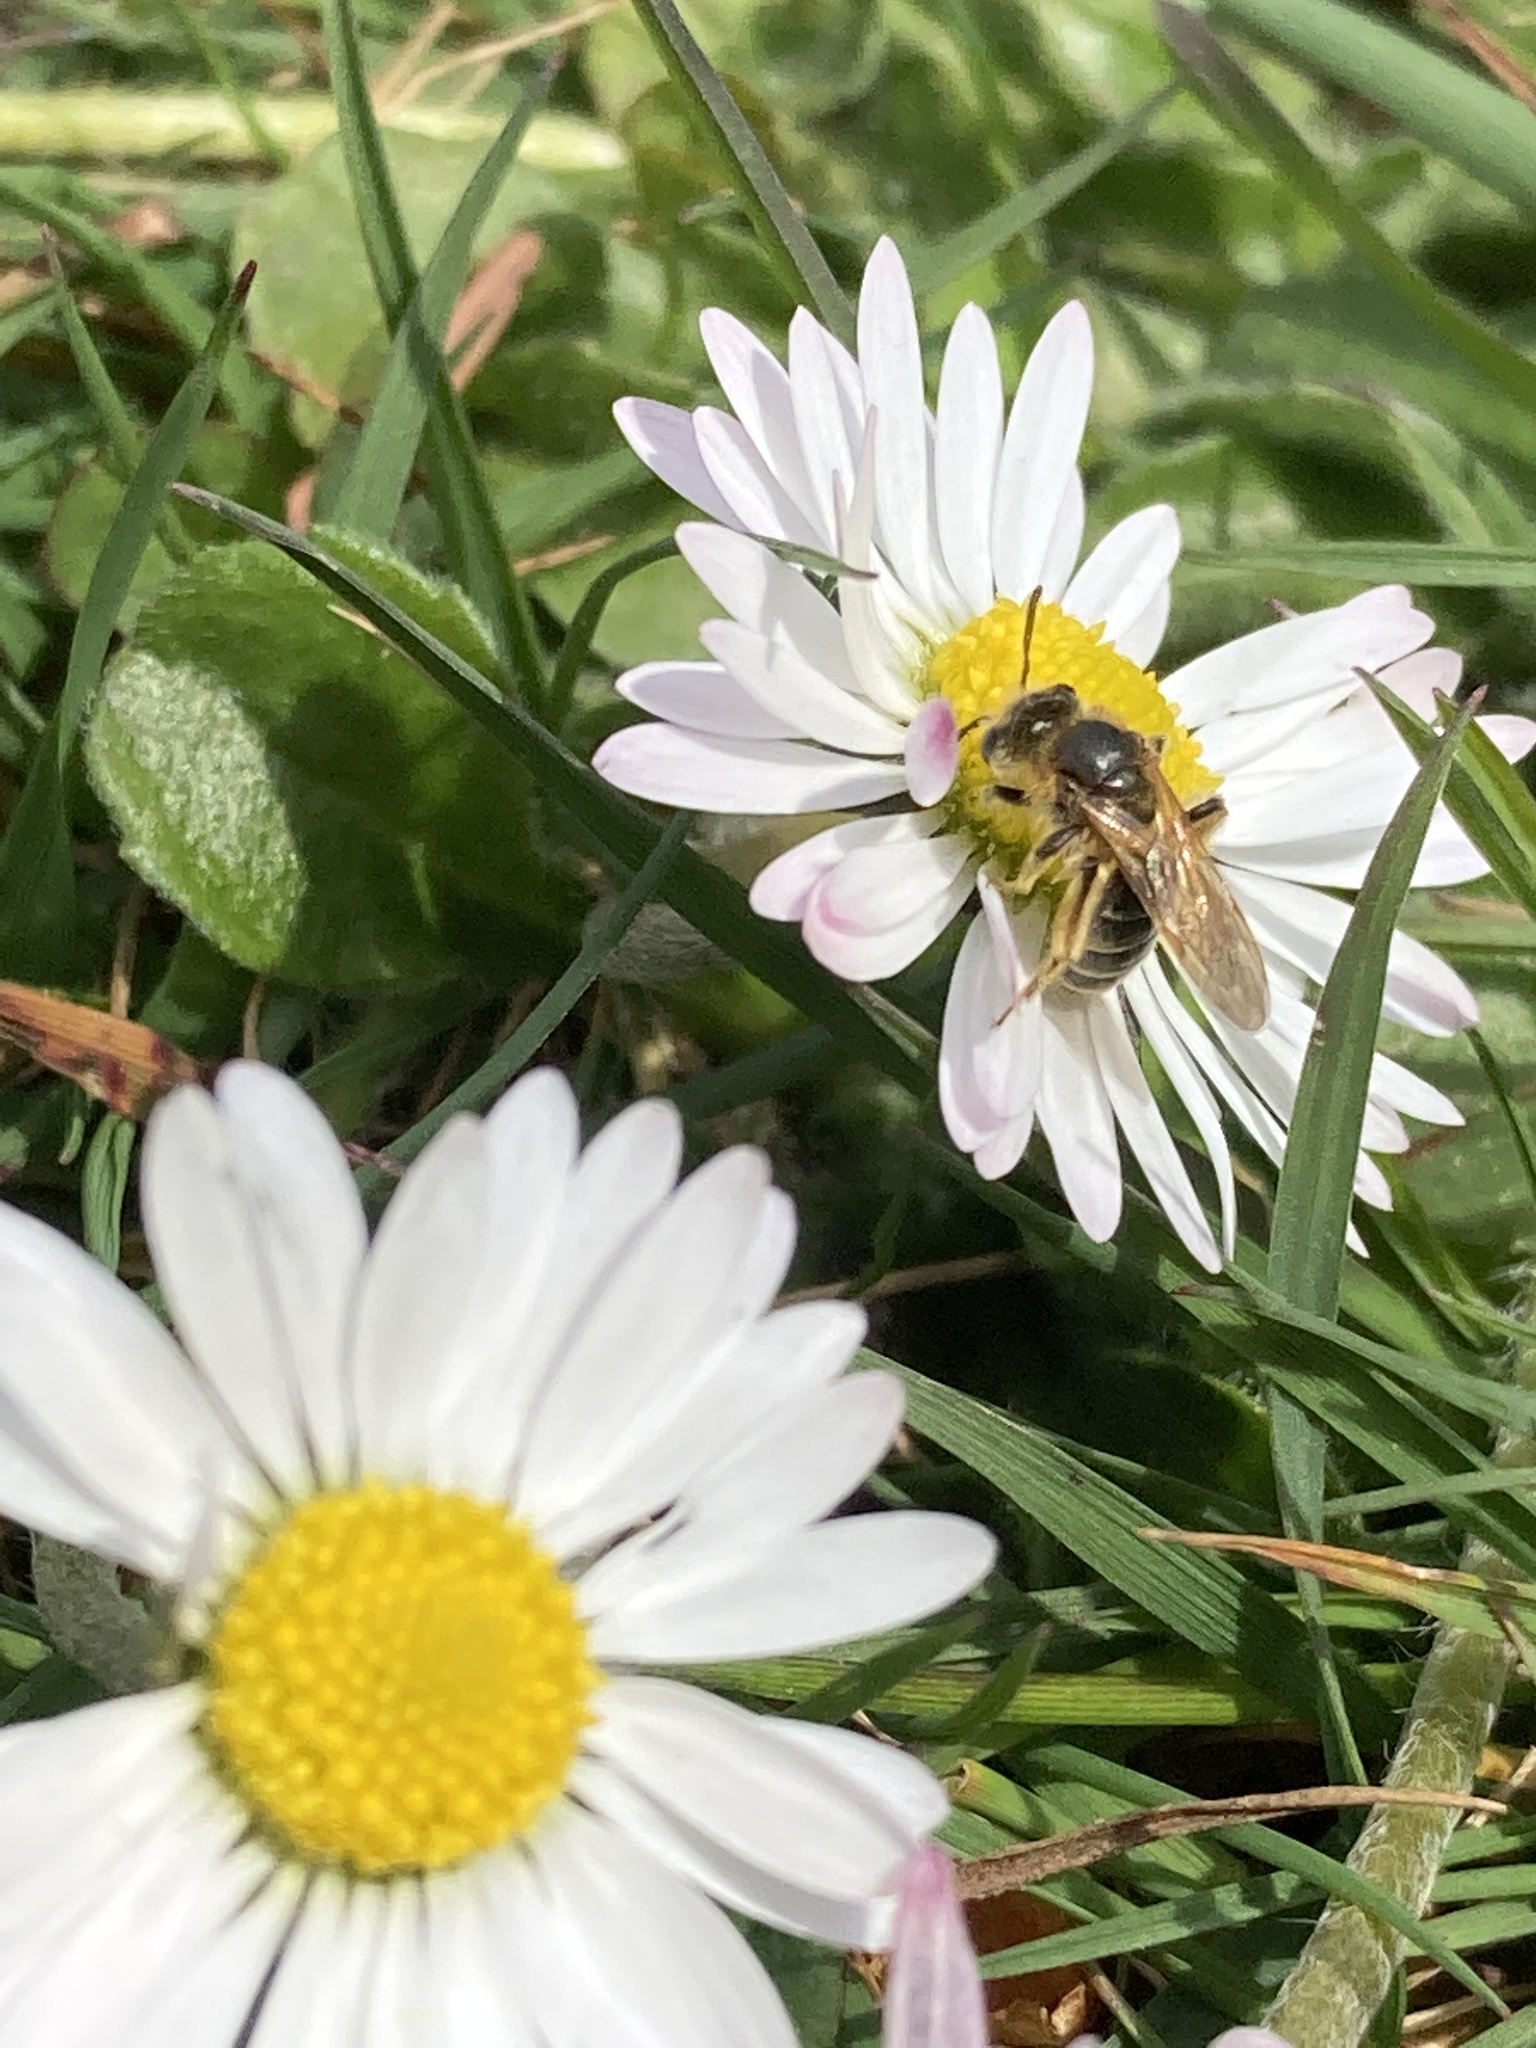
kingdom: Plantae
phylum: Tracheophyta
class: Magnoliopsida
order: Asterales
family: Asteraceae
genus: Bellis
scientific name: Bellis perennis
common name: Lawndaisy
